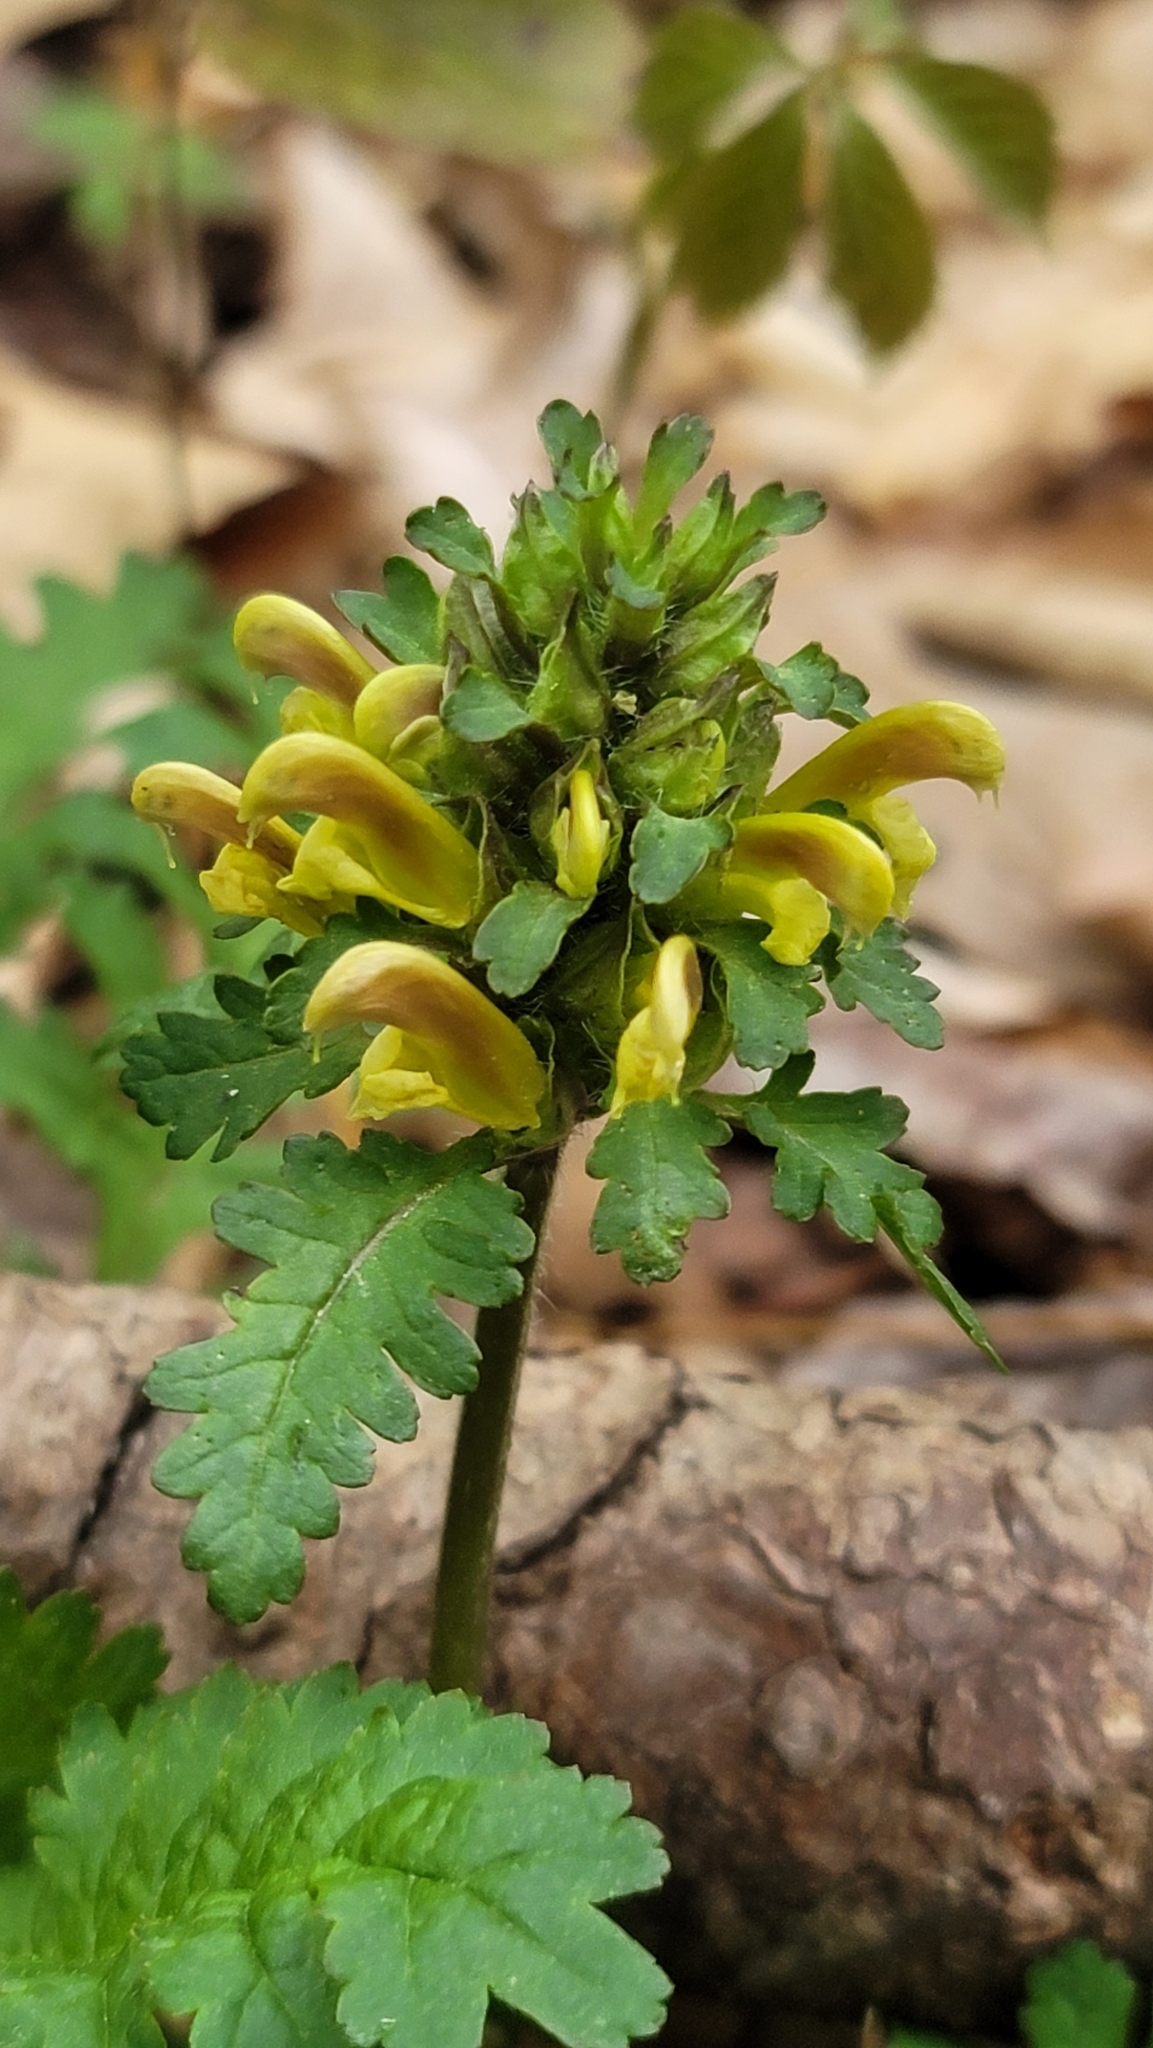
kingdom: Plantae
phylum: Tracheophyta
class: Magnoliopsida
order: Lamiales
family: Orobanchaceae
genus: Pedicularis
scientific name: Pedicularis canadensis
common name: Early lousewort
